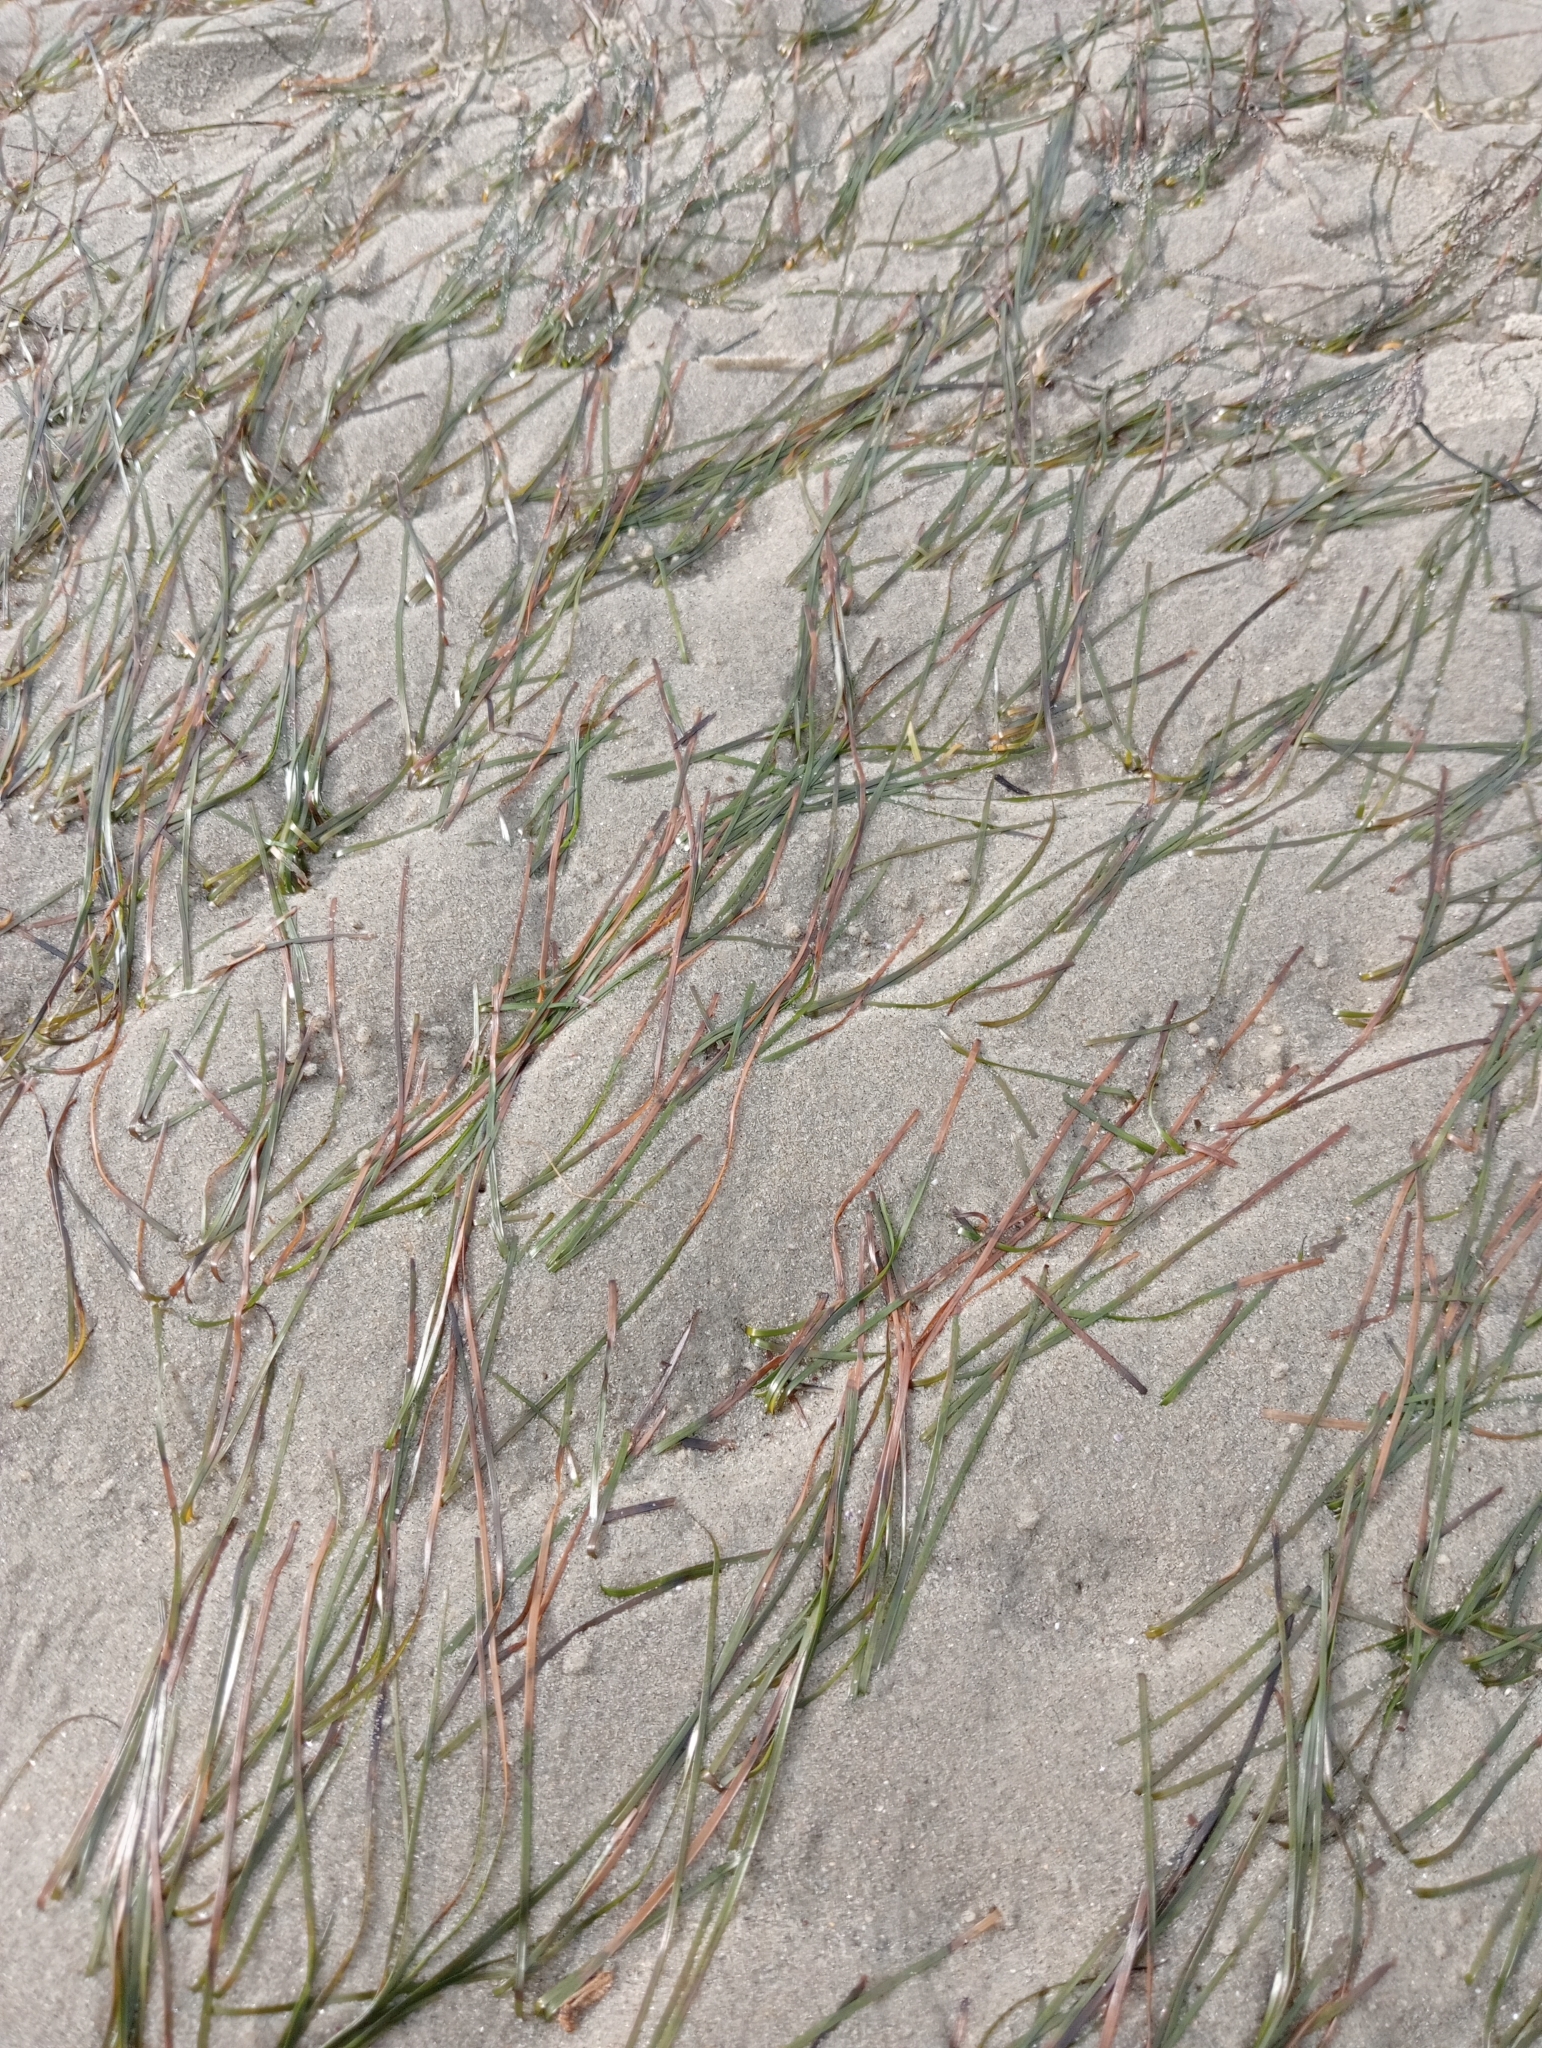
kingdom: Plantae
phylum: Tracheophyta
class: Liliopsida
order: Alismatales
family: Zosteraceae
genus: Zostera
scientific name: Zostera novazelandica
